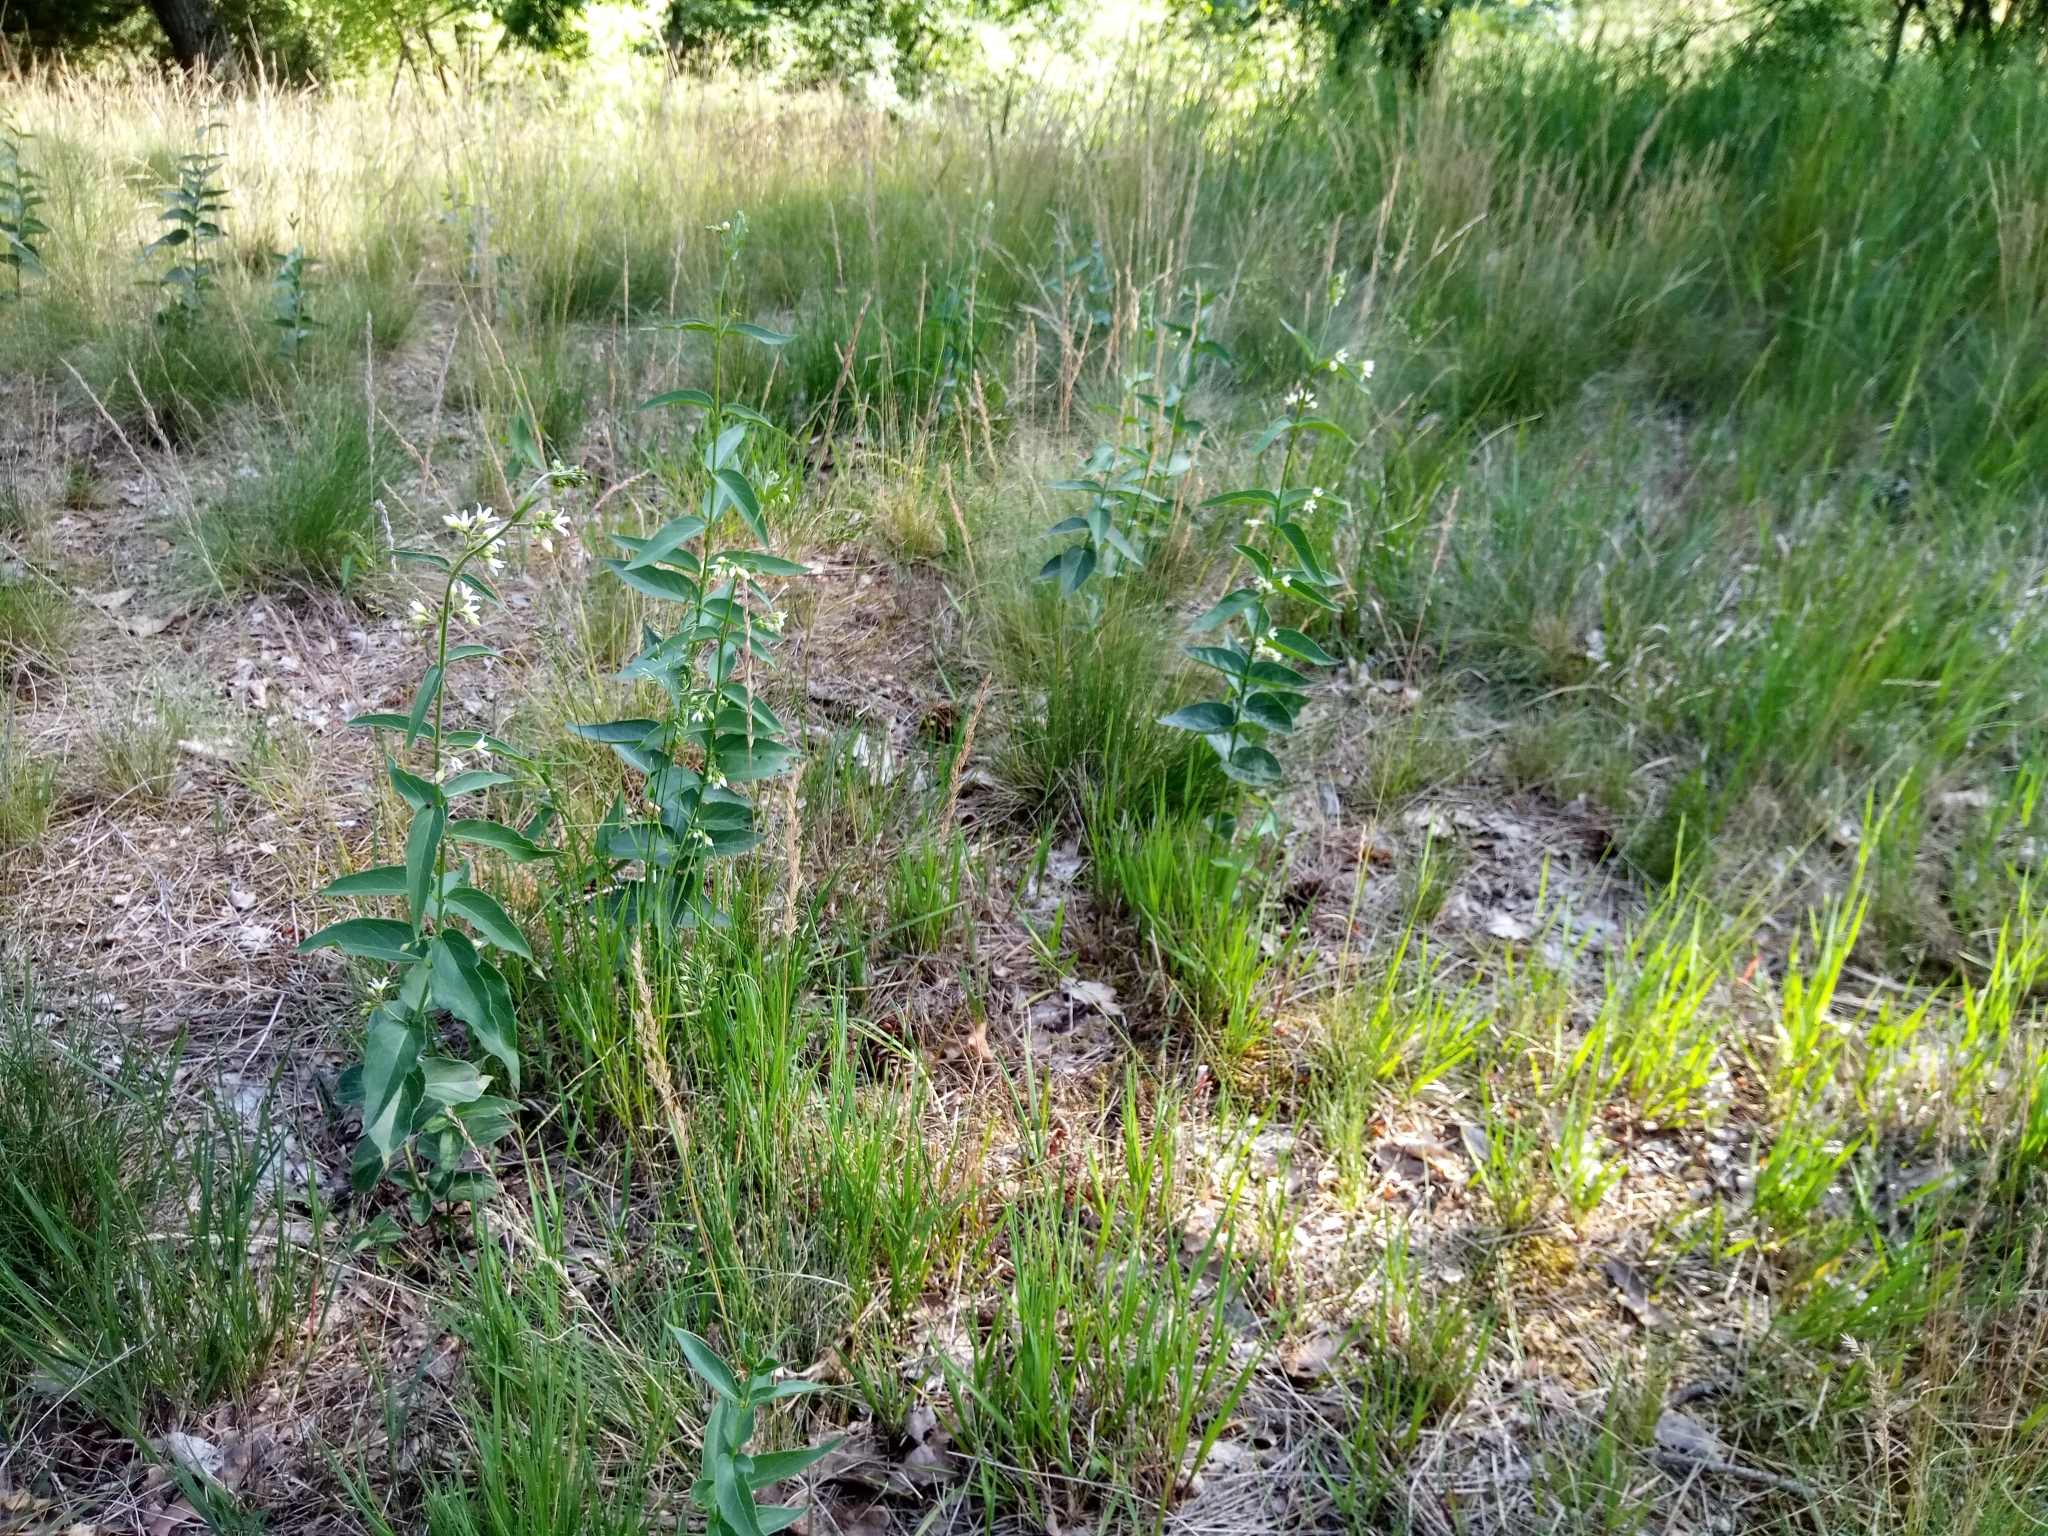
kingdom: Plantae
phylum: Tracheophyta
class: Magnoliopsida
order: Gentianales
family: Apocynaceae
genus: Vincetoxicum
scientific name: Vincetoxicum hirundinaria
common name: White swallowwort
